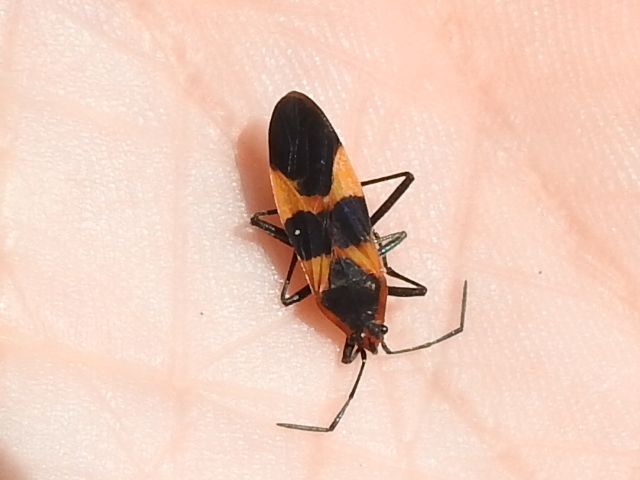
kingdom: Animalia
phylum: Arthropoda
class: Insecta
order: Hemiptera
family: Lygaeidae
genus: Oncopeltus
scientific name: Oncopeltus fasciatus
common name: Large milkweed bug
